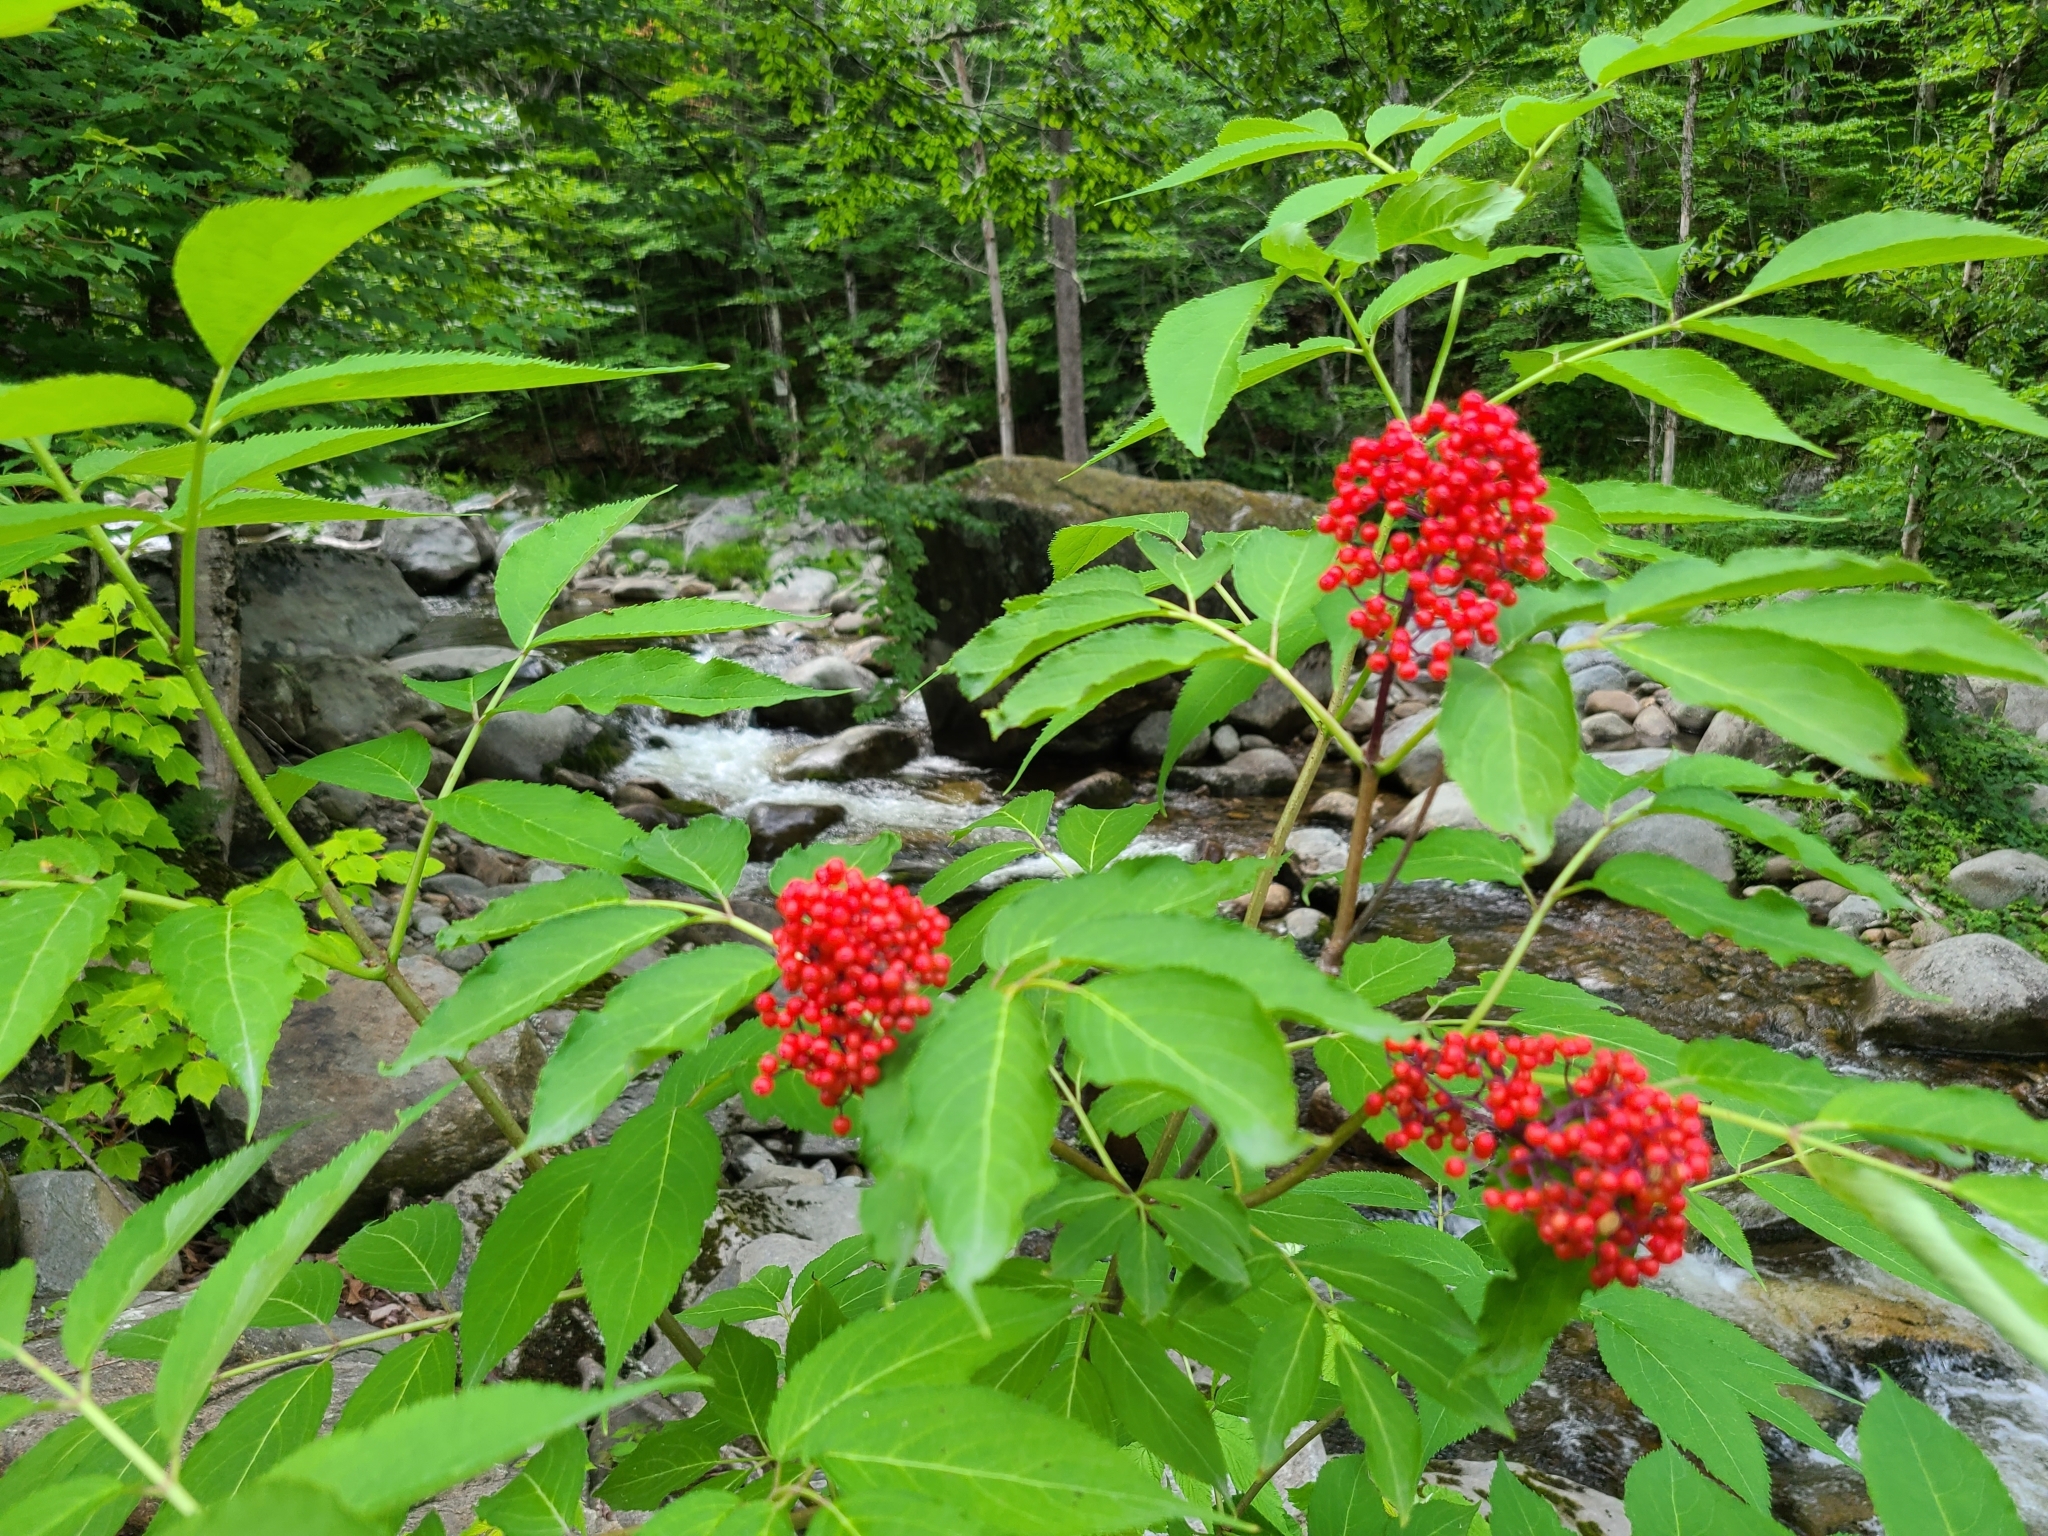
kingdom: Plantae
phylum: Tracheophyta
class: Magnoliopsida
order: Dipsacales
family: Viburnaceae
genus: Sambucus
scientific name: Sambucus racemosa
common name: Red-berried elder
